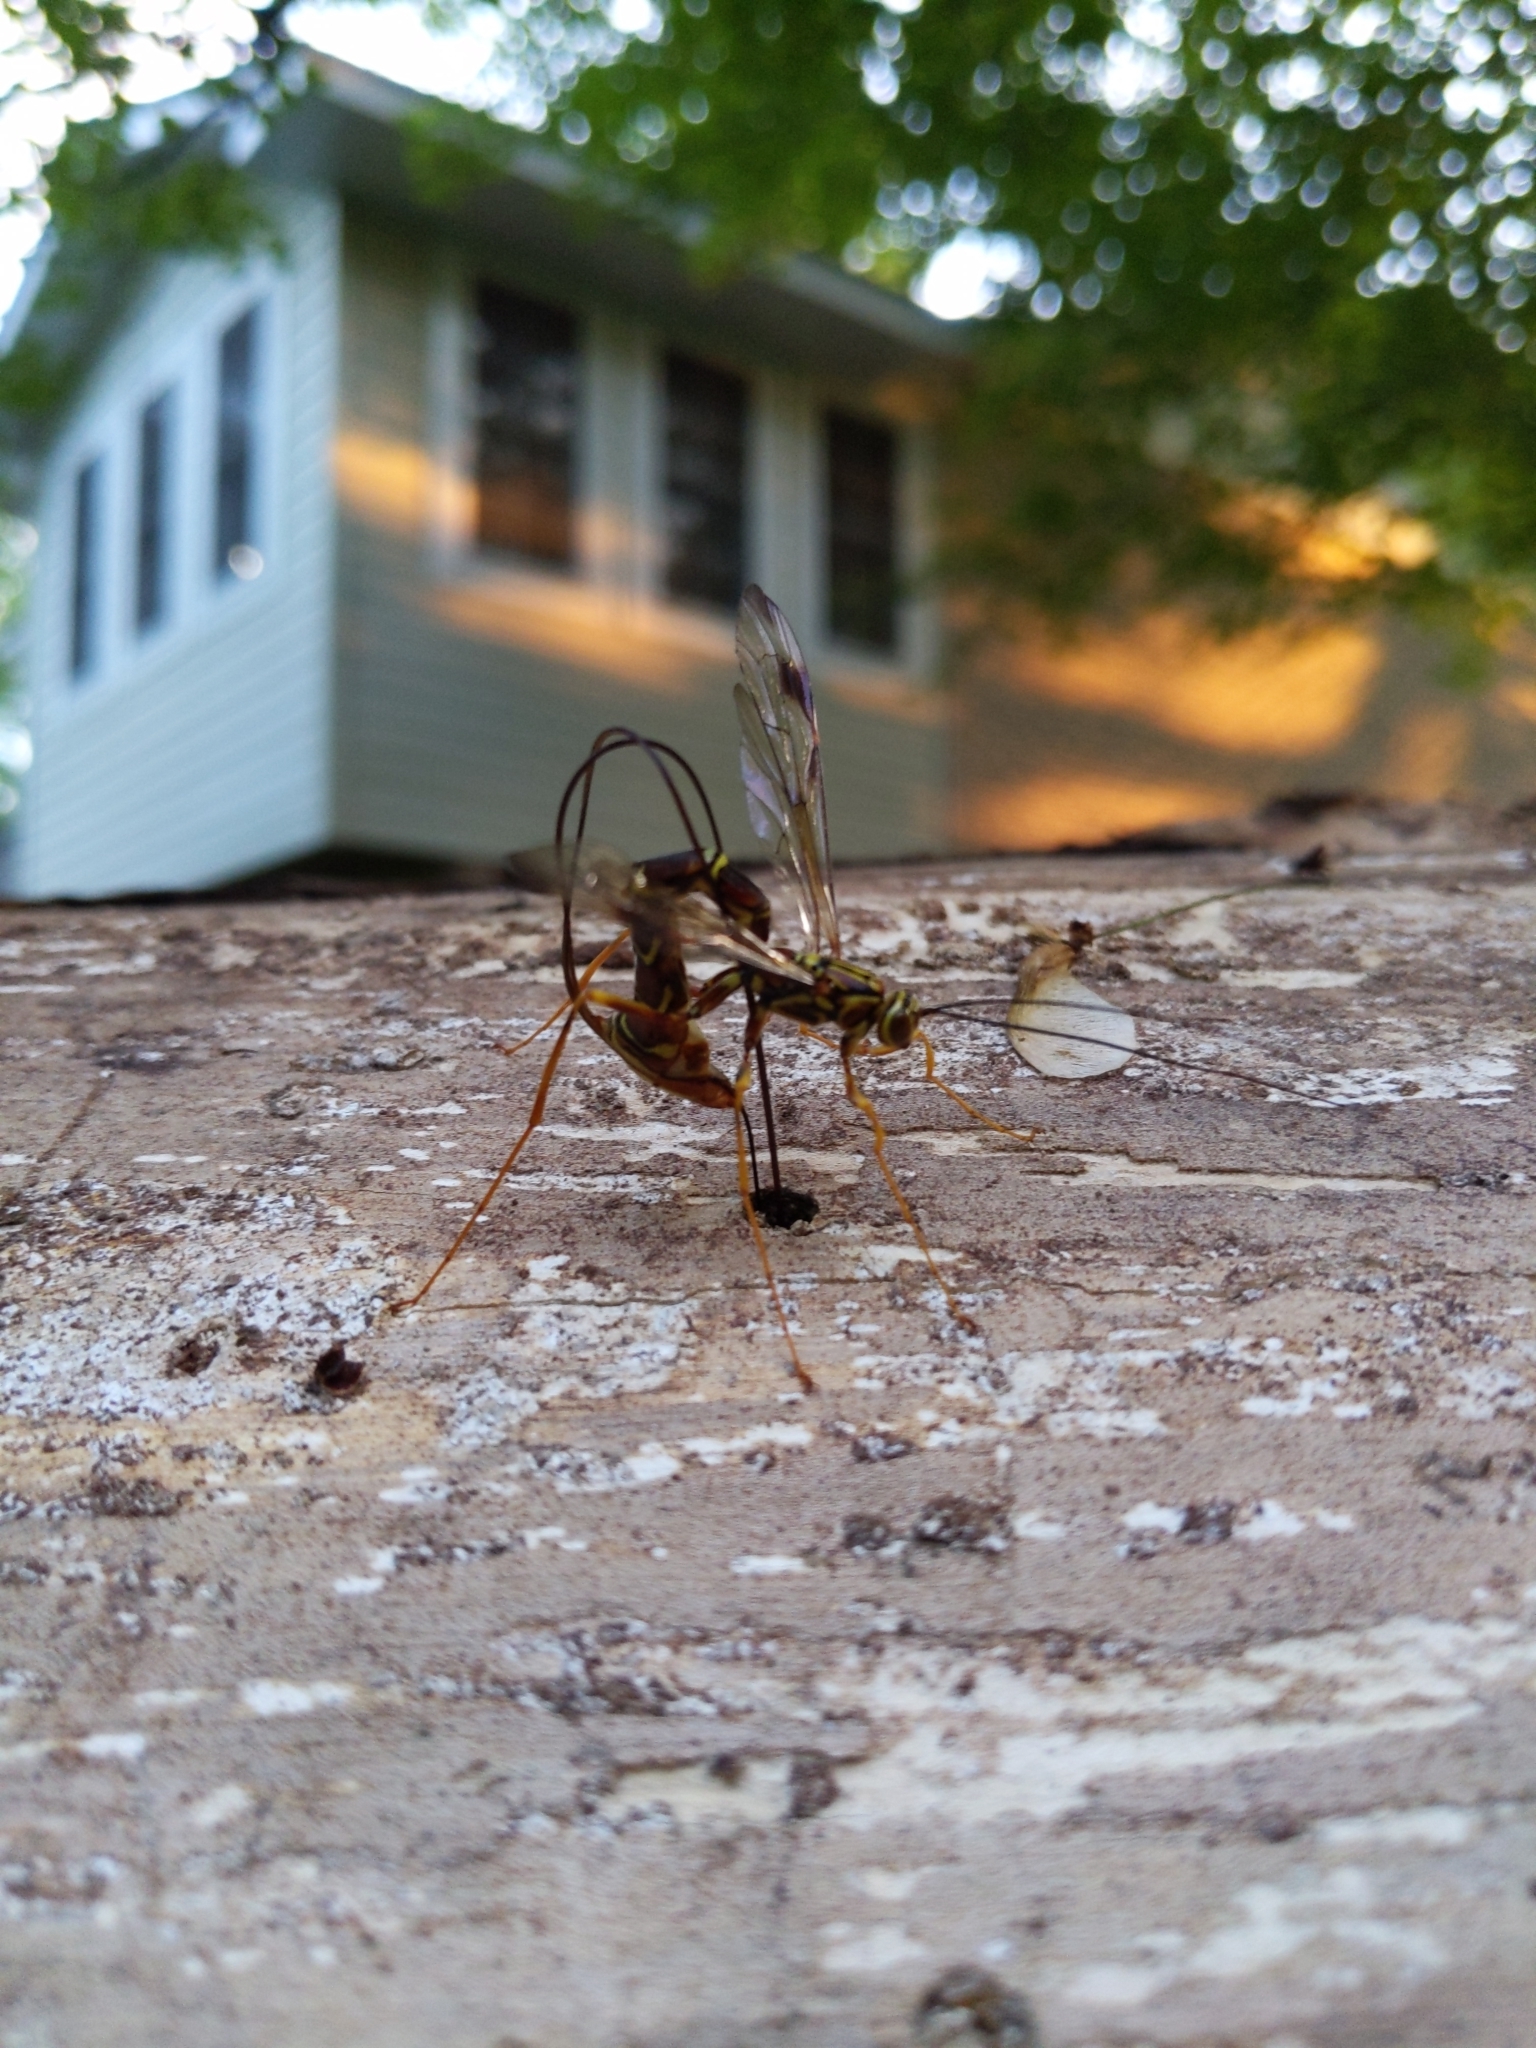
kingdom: Animalia
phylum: Arthropoda
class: Insecta
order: Hymenoptera
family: Ichneumonidae
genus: Megarhyssa
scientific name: Megarhyssa macrura
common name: Long-tailed giant ichneumonid wasp
